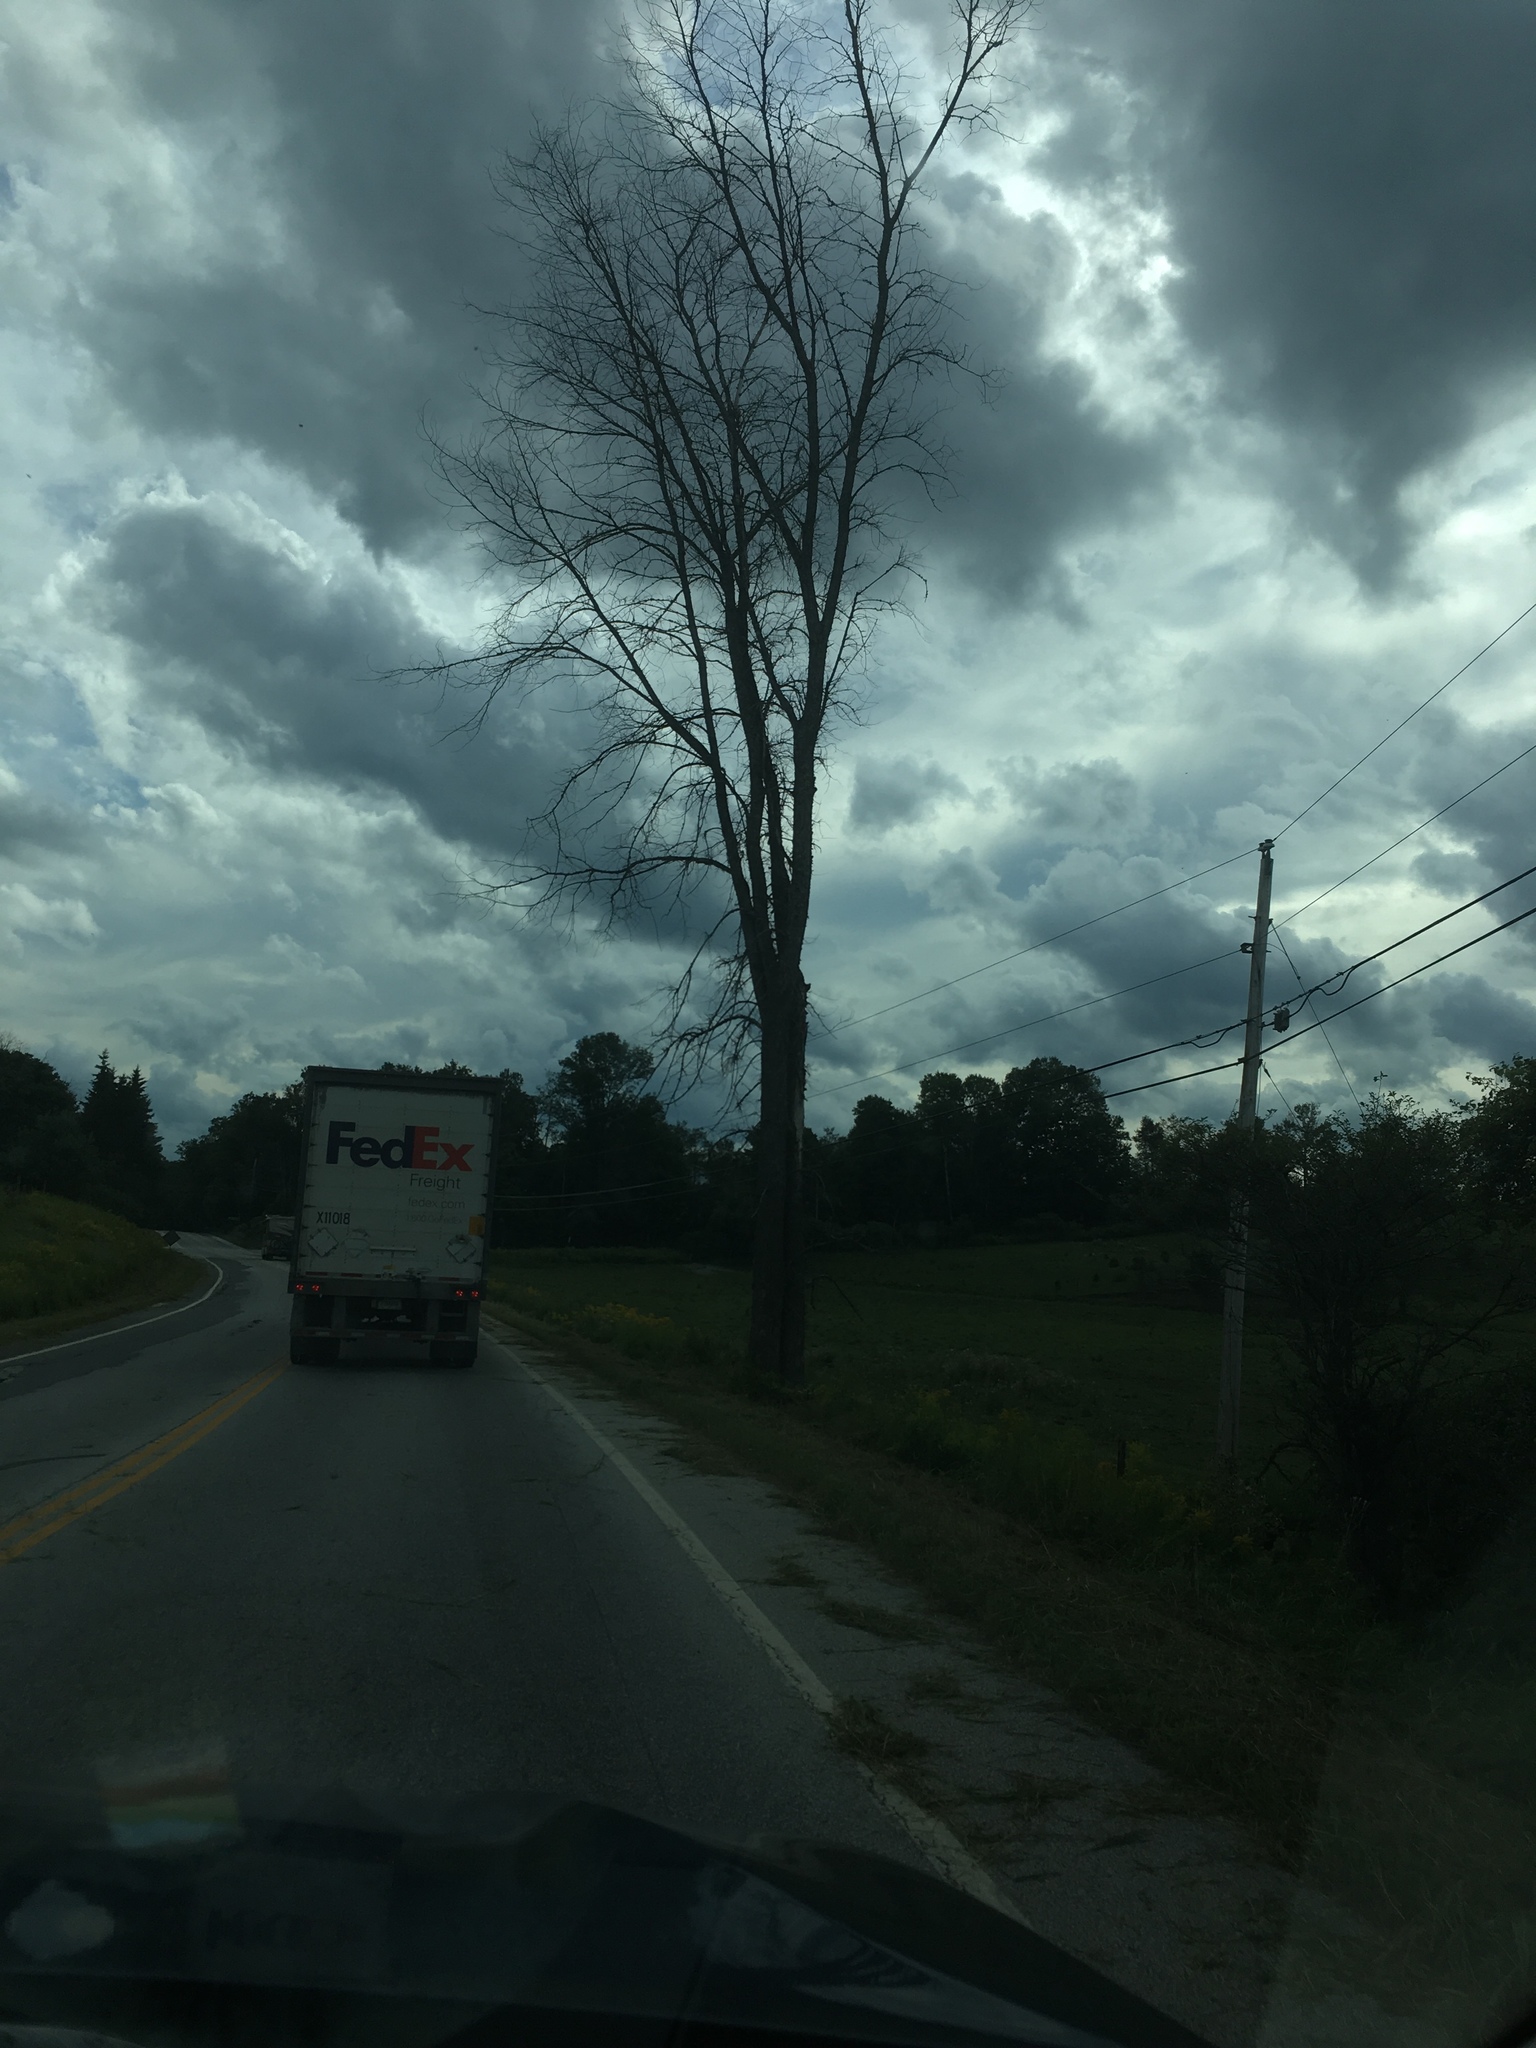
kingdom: Plantae
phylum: Tracheophyta
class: Magnoliopsida
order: Rosales
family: Ulmaceae
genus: Ulmus
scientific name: Ulmus americana
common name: American elm
